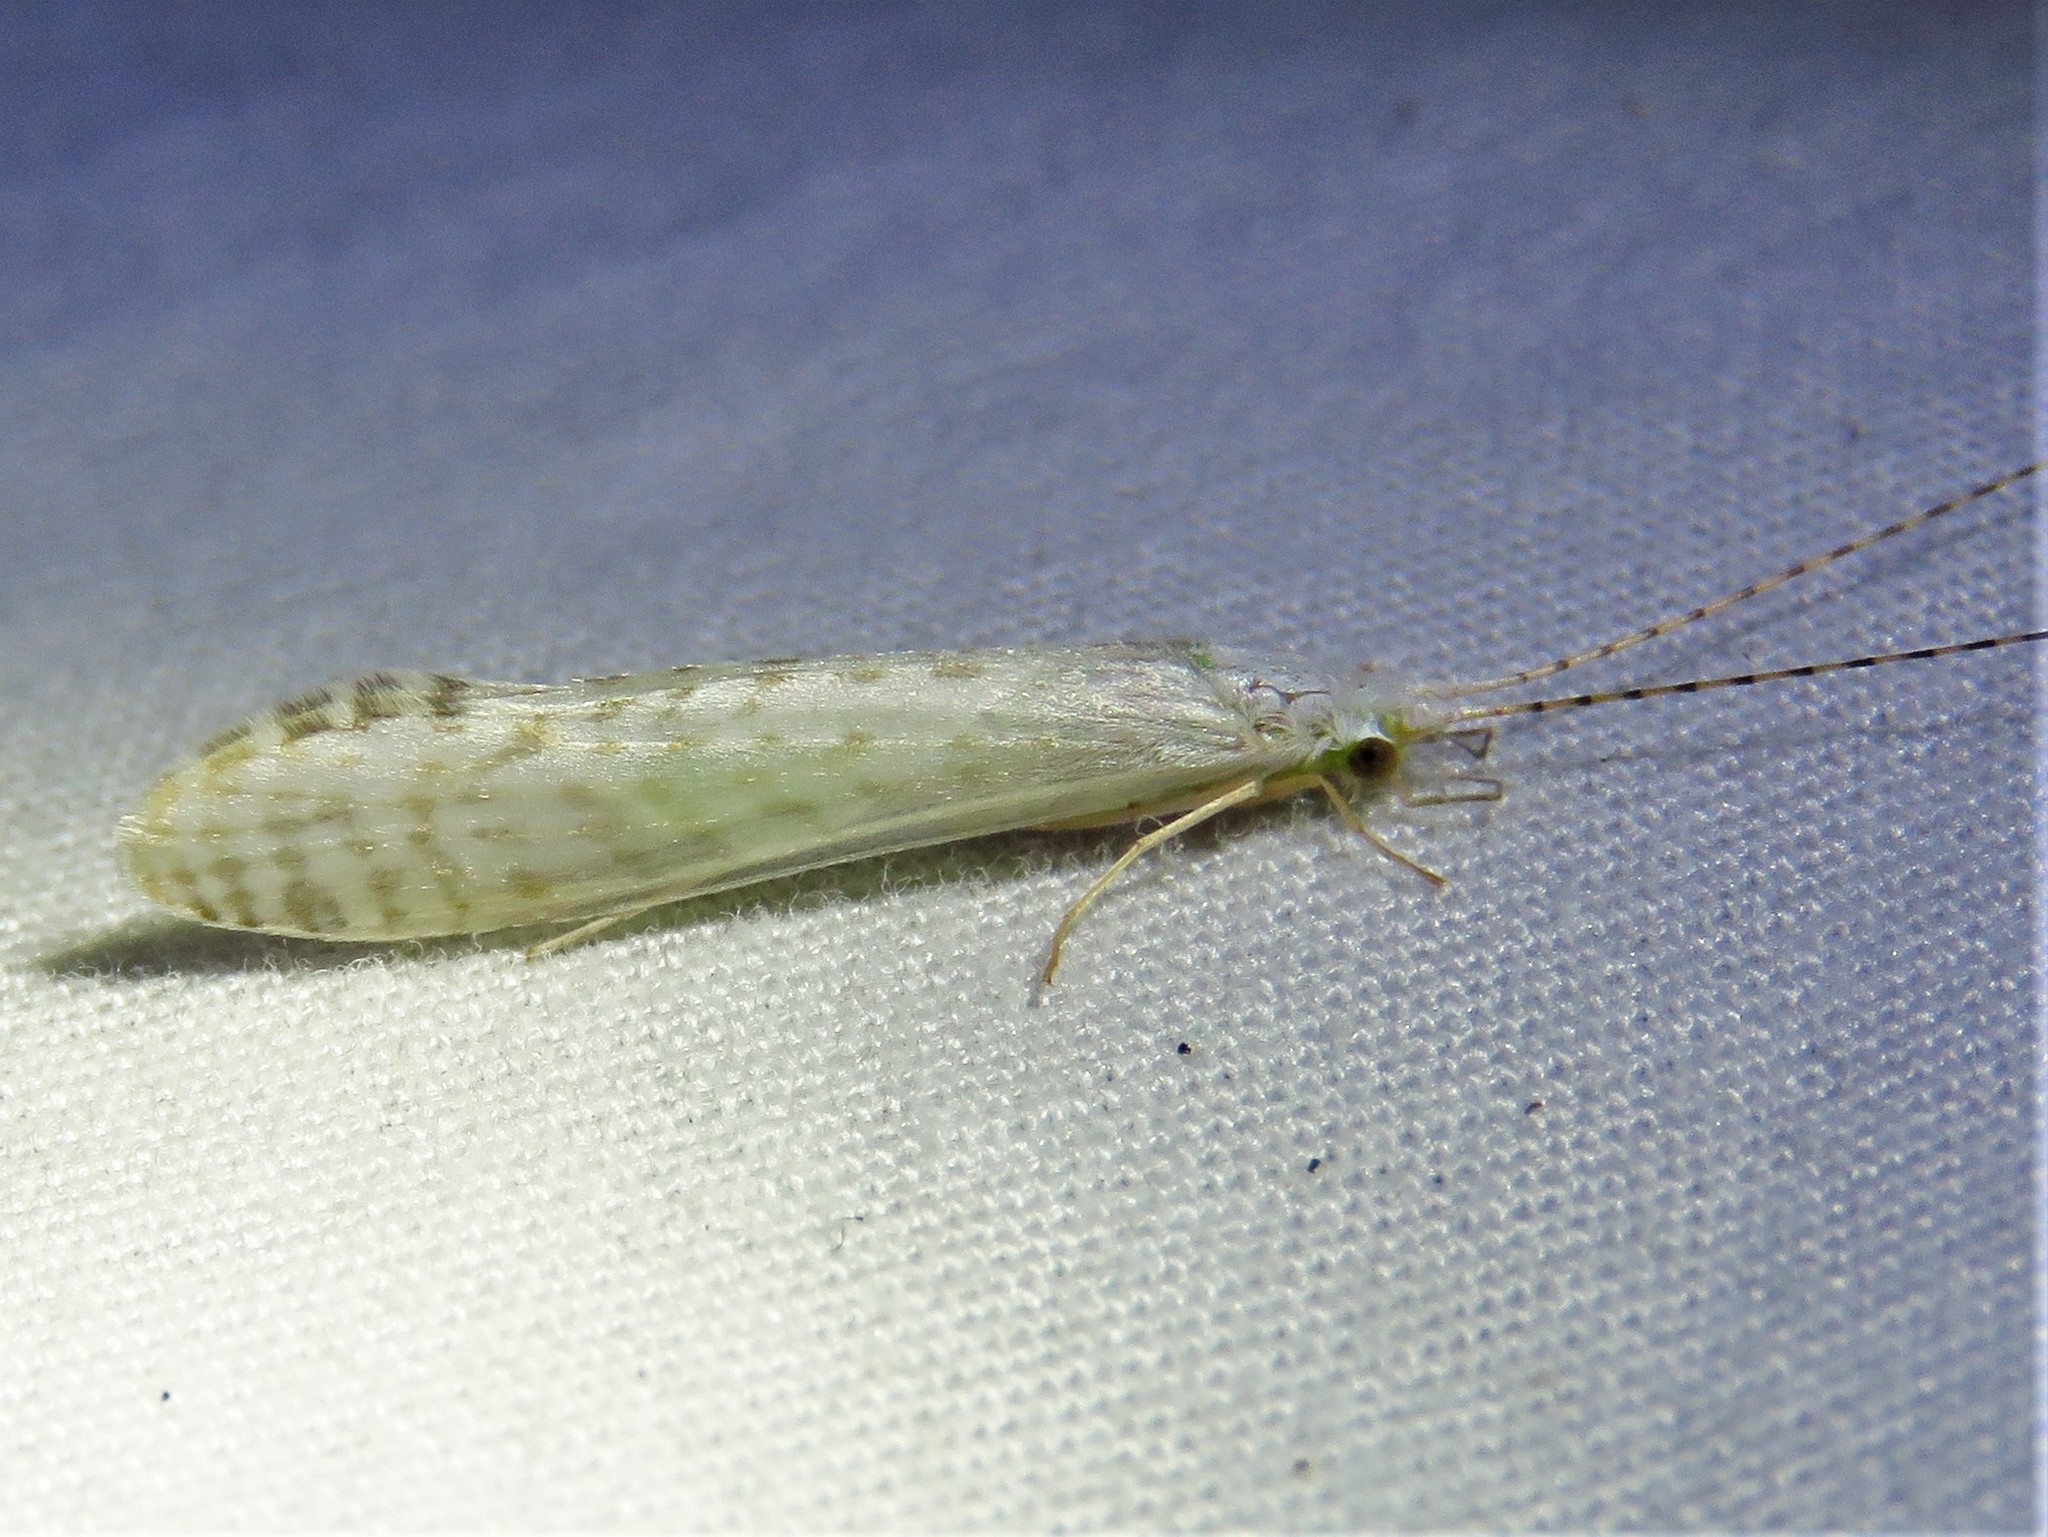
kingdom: Animalia
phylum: Arthropoda
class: Insecta
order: Trichoptera
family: Leptoceridae
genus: Nectopsyche
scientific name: Nectopsyche candida
